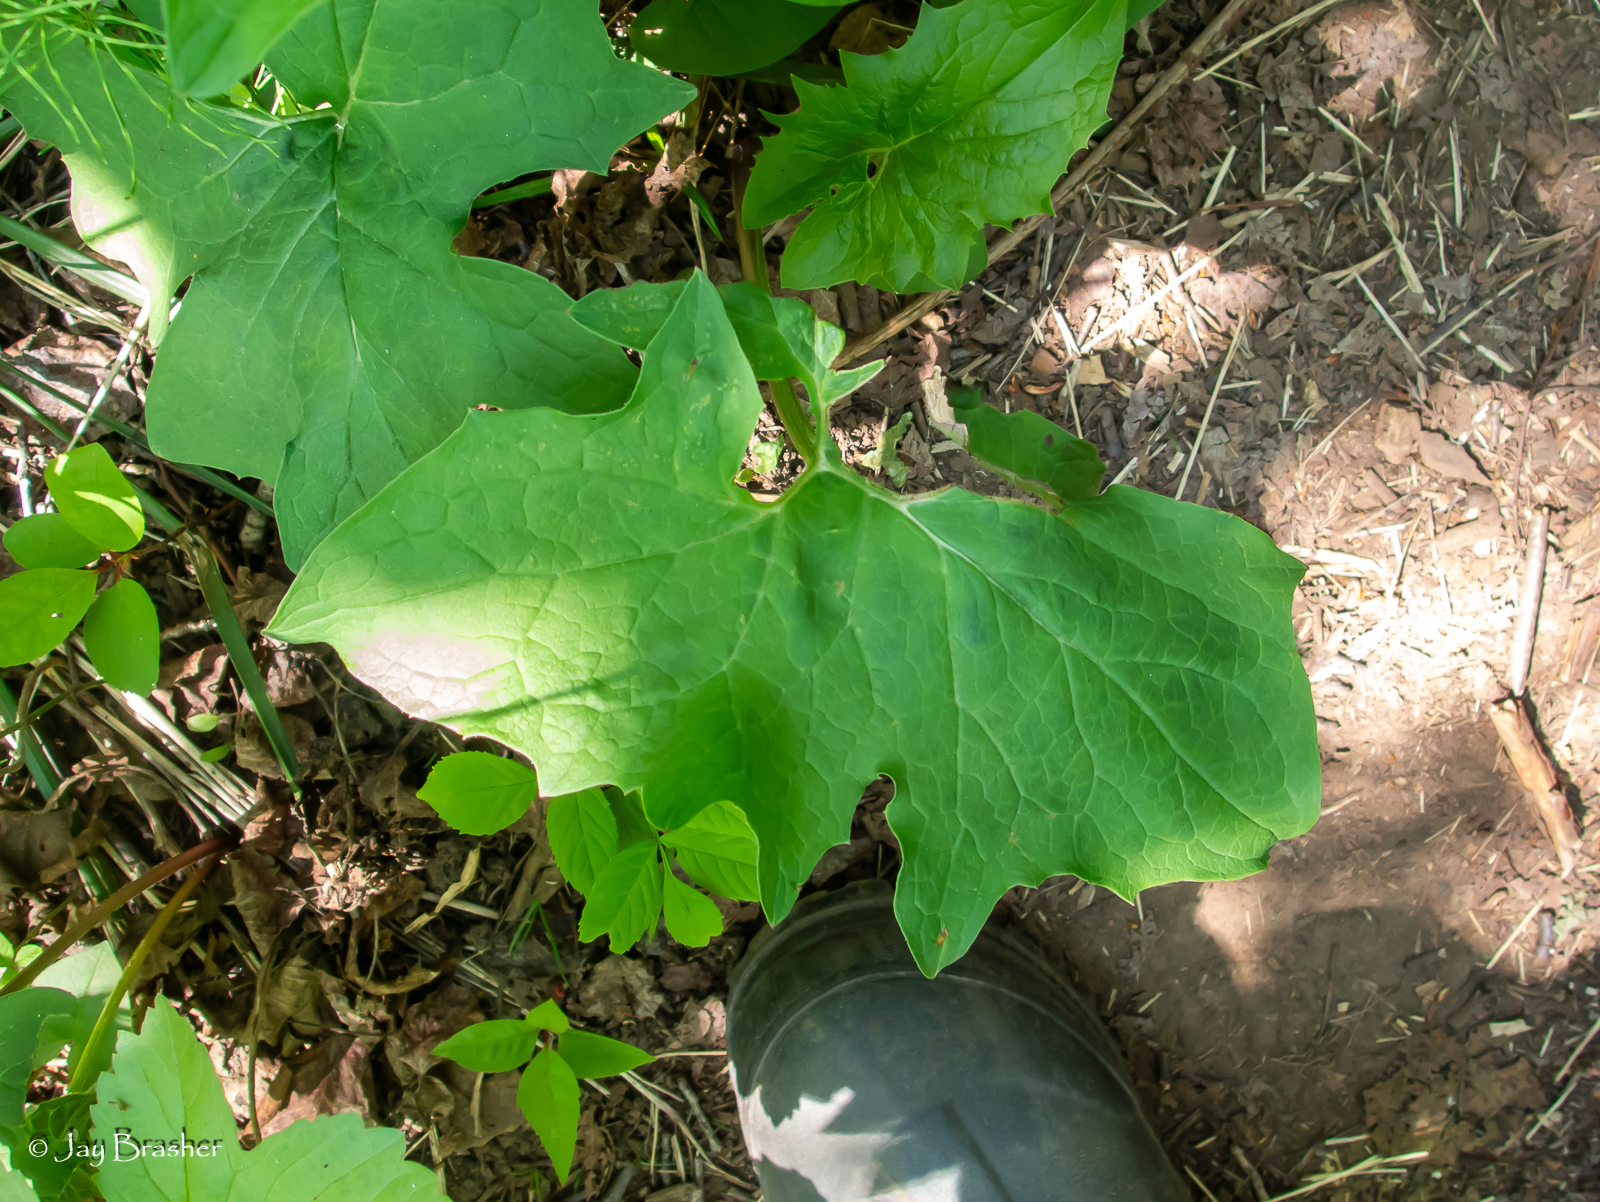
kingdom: Plantae
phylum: Tracheophyta
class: Magnoliopsida
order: Asterales
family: Asteraceae
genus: Nabalus
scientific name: Nabalus albus
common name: White rattlesnakeroot
